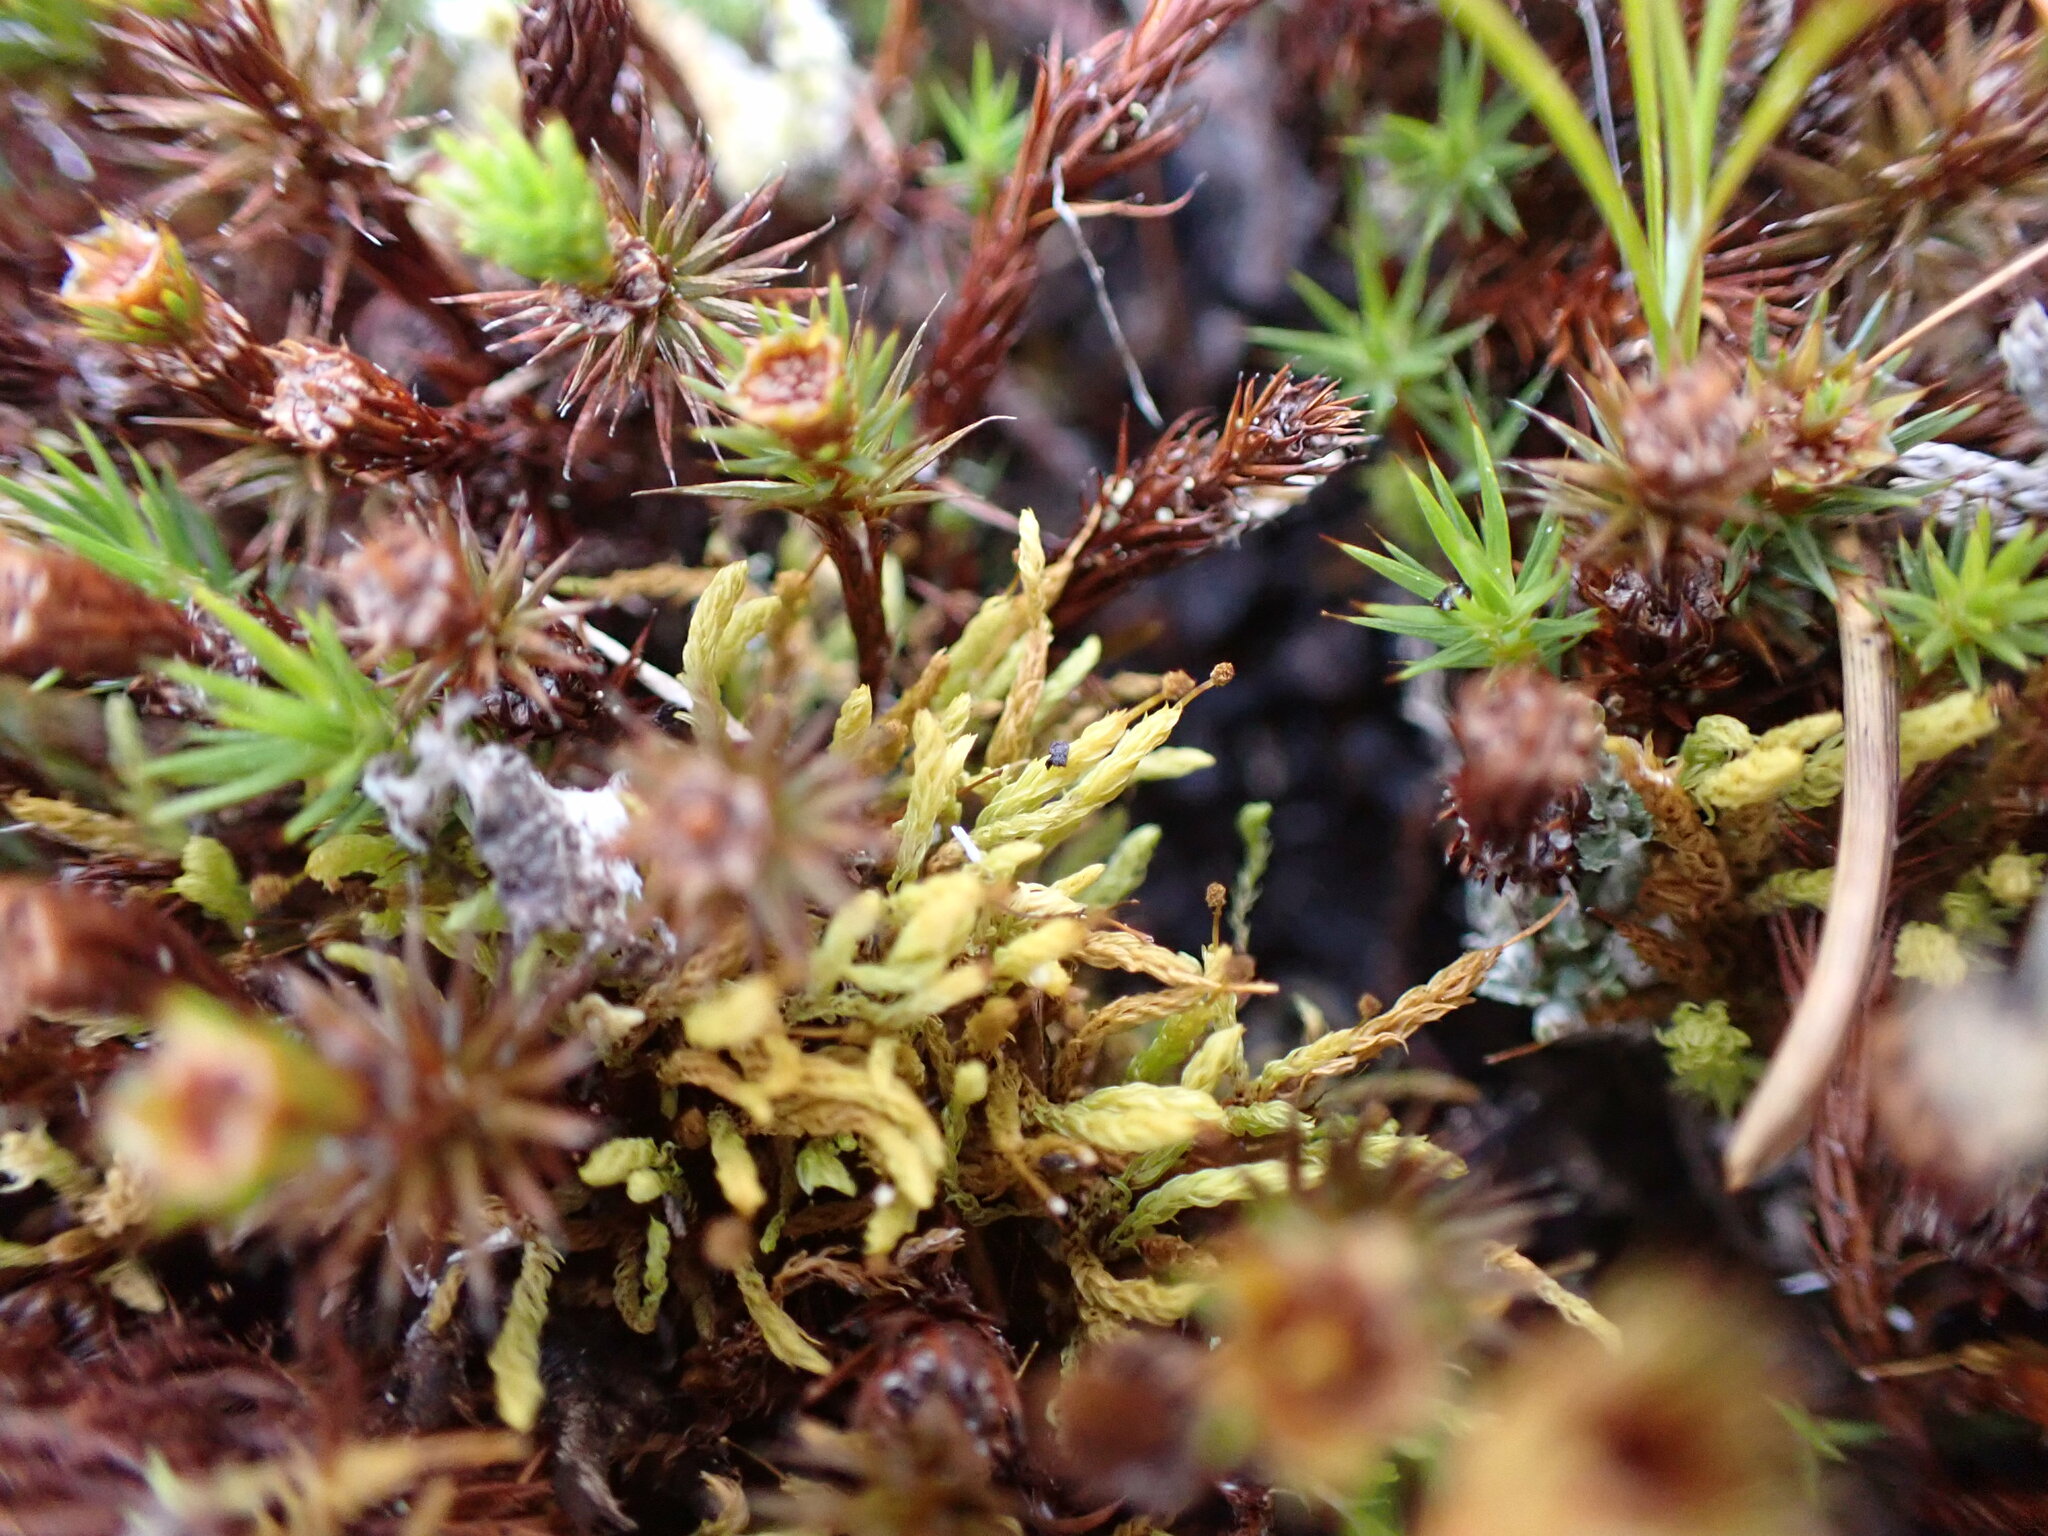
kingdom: Plantae
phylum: Bryophyta
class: Bryopsida
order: Aulacomniales
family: Aulacomniaceae
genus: Aulacomnium
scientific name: Aulacomnium androgynum
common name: Little groove moss
